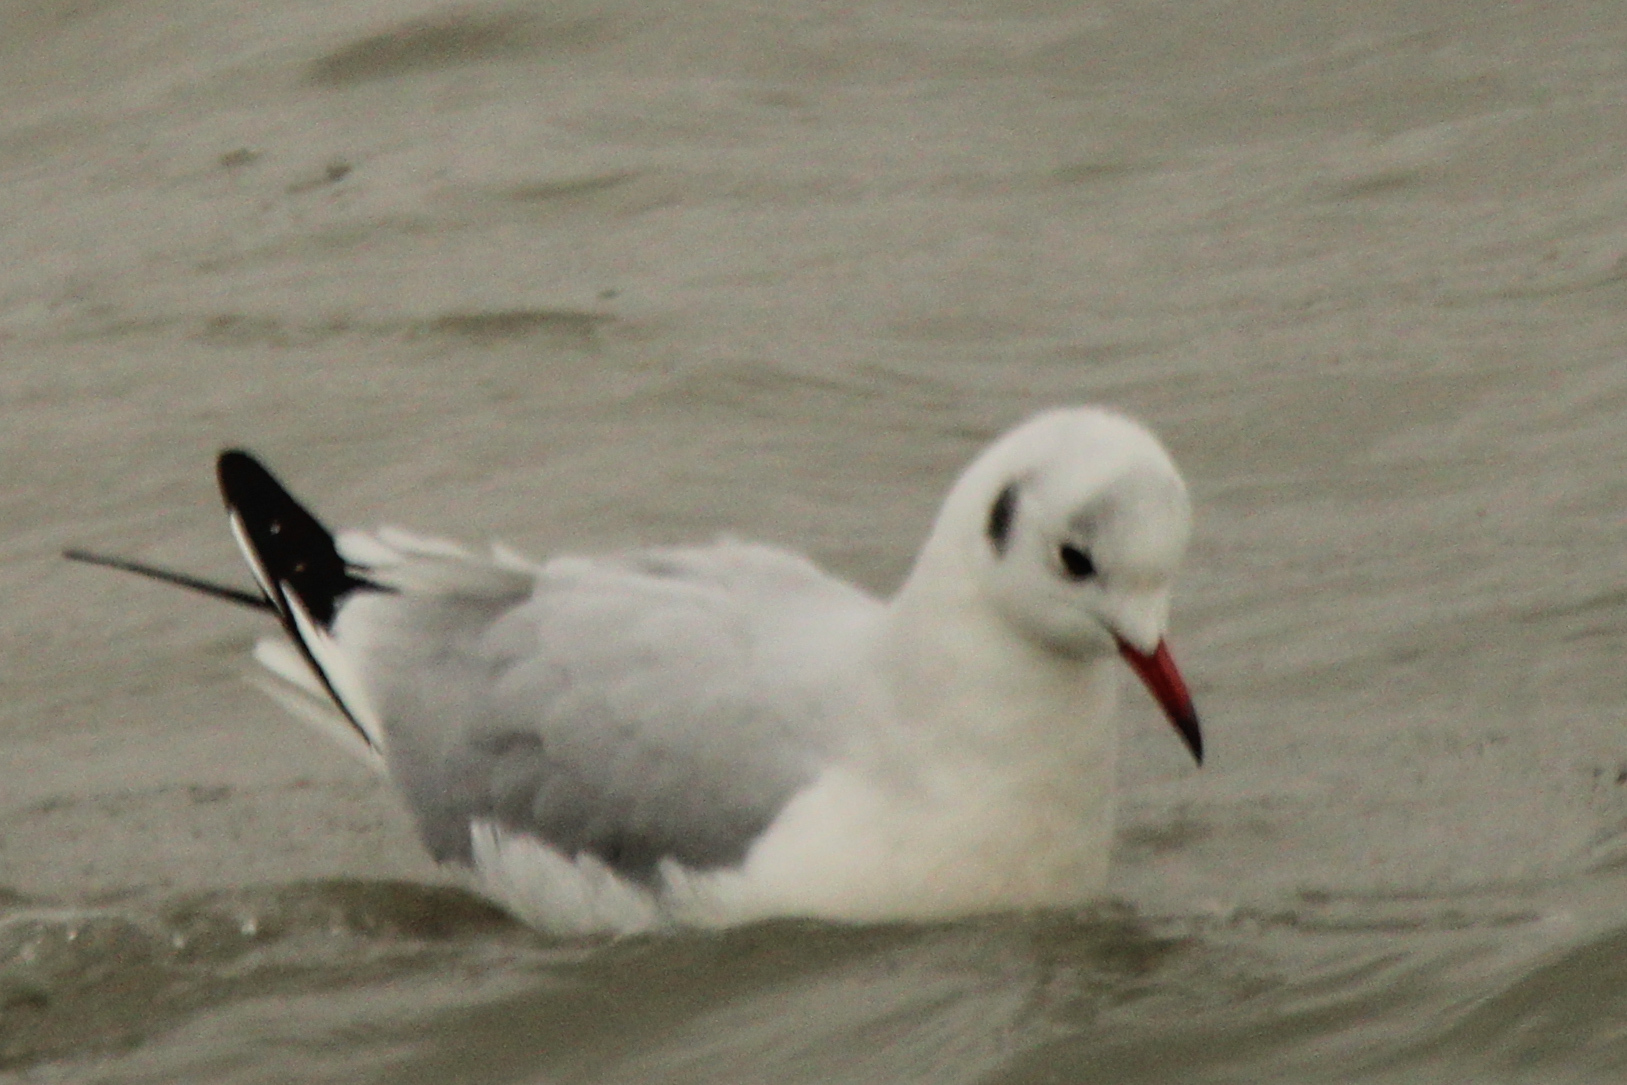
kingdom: Animalia
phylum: Chordata
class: Aves
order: Charadriiformes
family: Laridae
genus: Chroicocephalus
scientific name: Chroicocephalus ridibundus
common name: Black-headed gull
